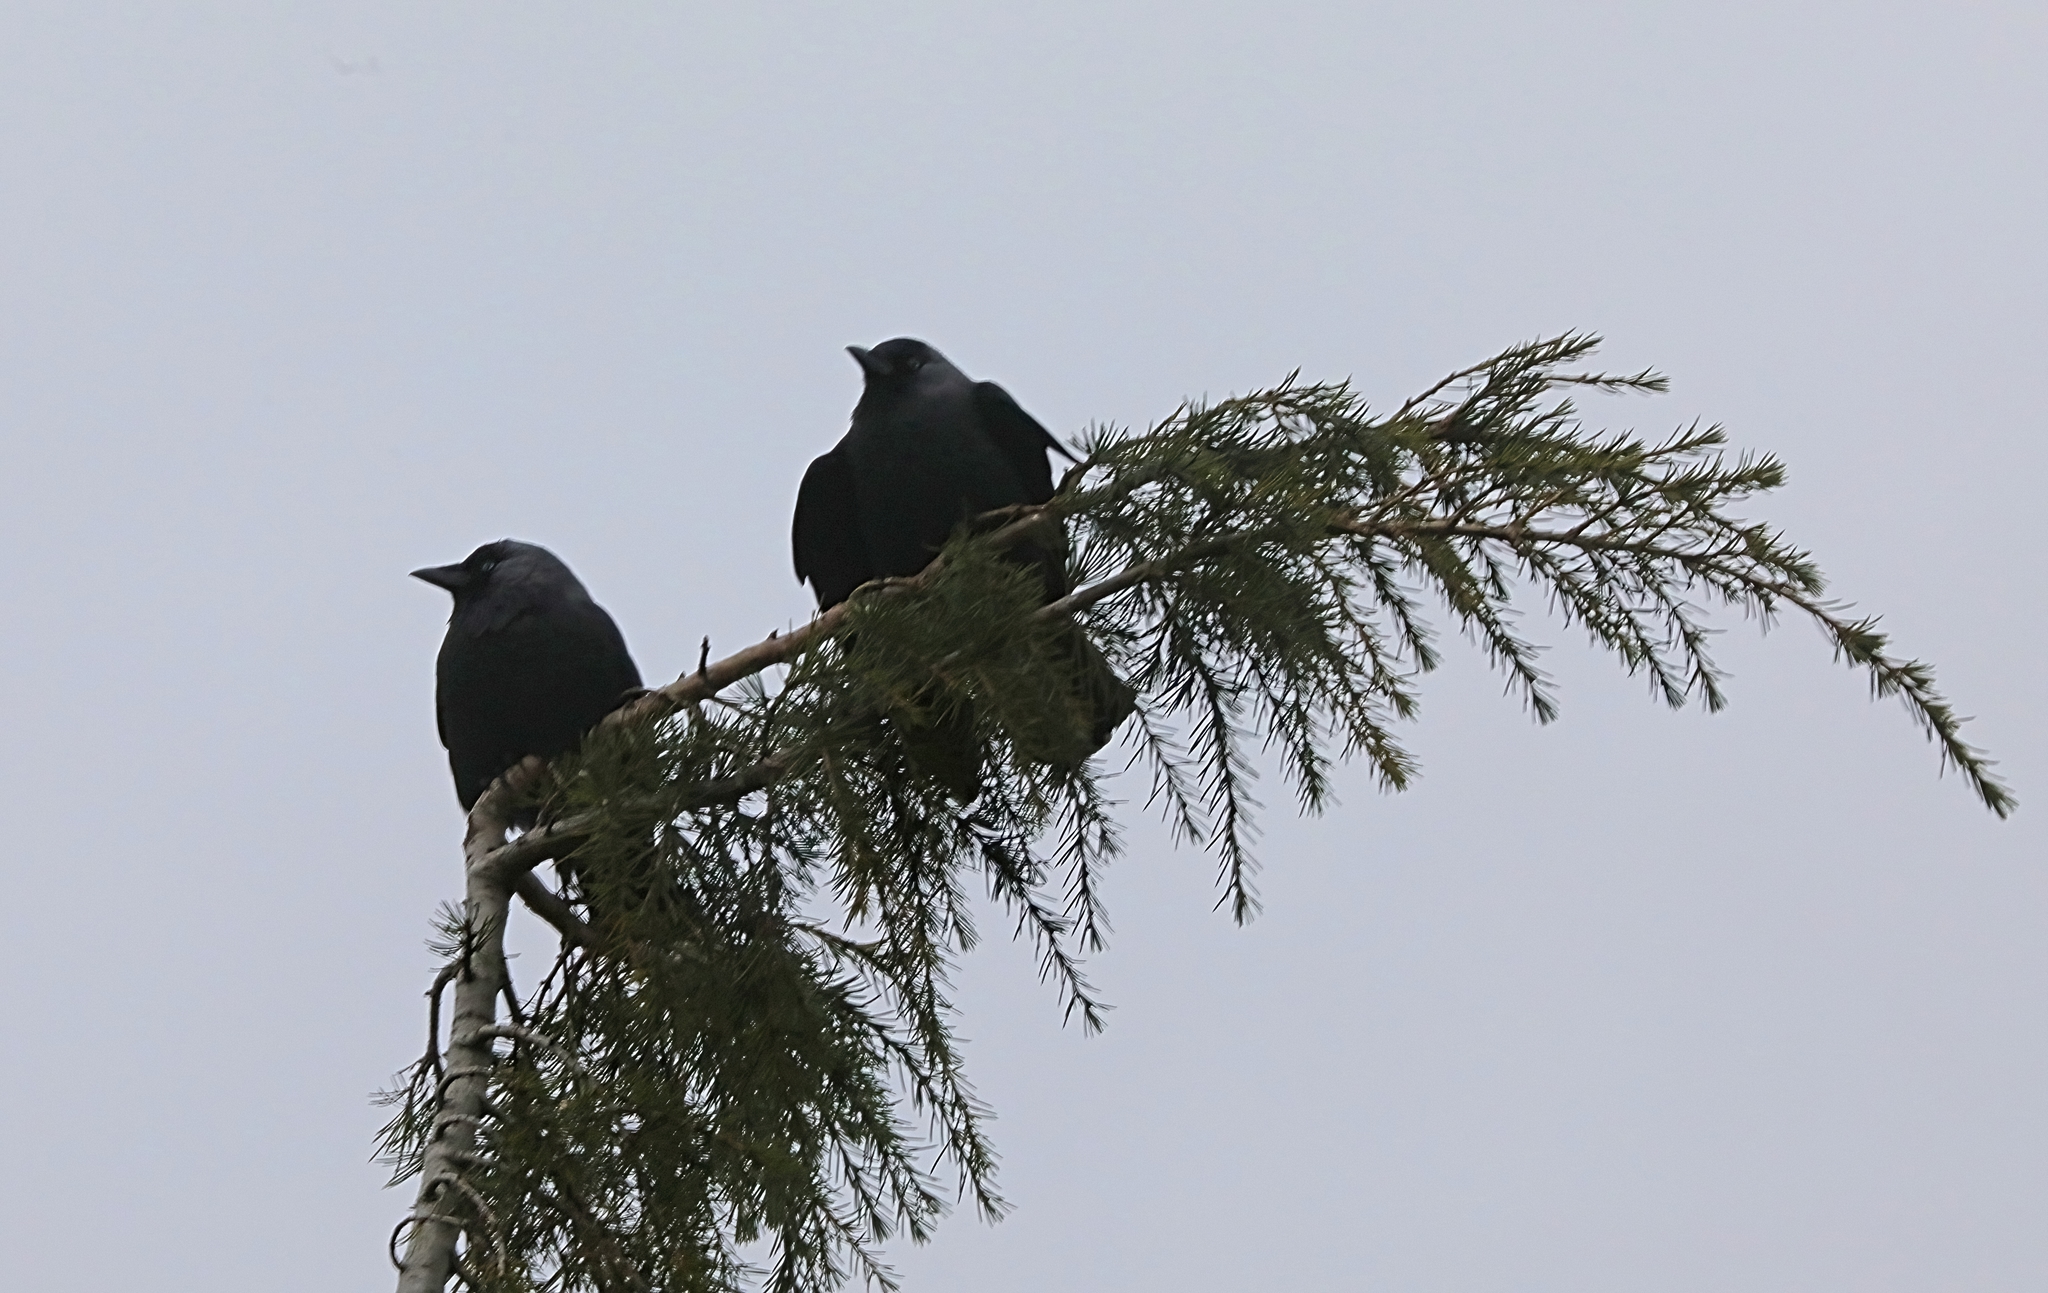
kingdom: Animalia
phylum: Chordata
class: Aves
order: Passeriformes
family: Corvidae
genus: Coloeus
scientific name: Coloeus monedula
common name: Western jackdaw
